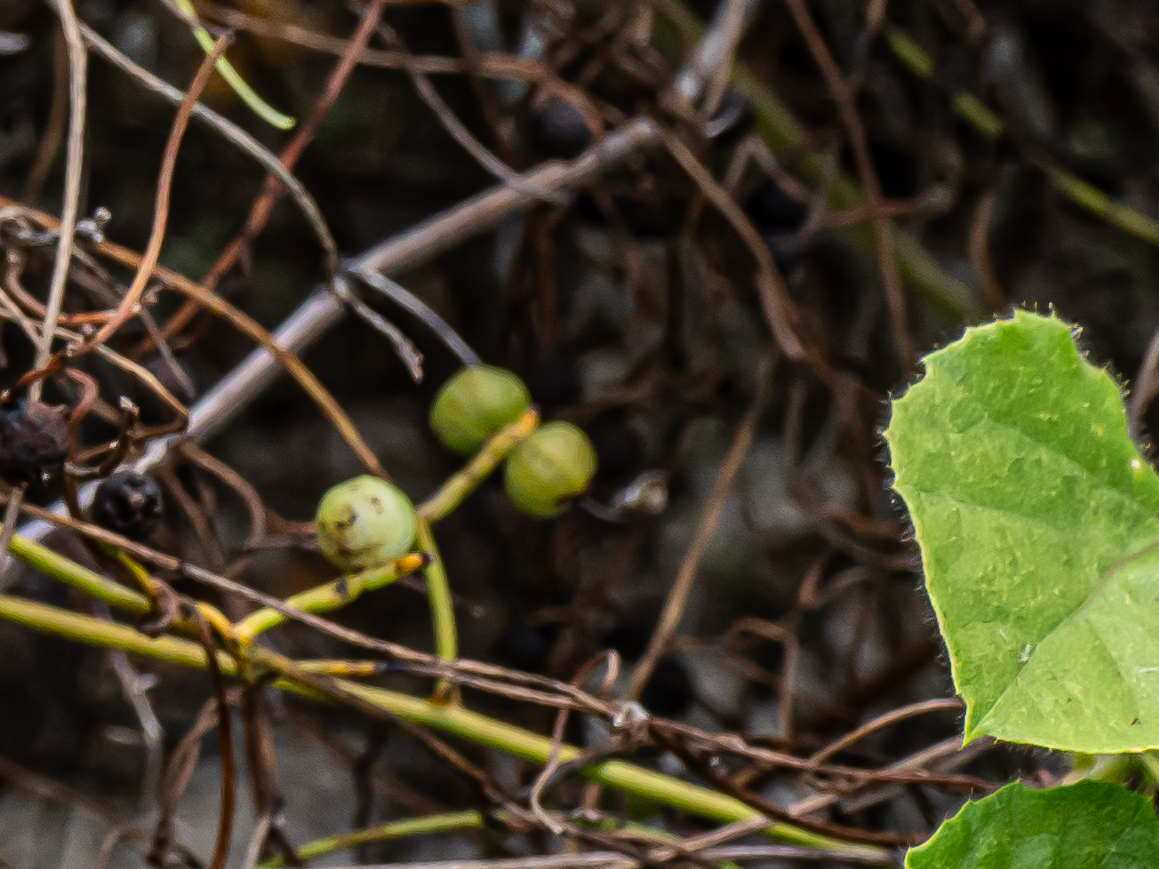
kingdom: Plantae
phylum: Tracheophyta
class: Magnoliopsida
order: Malpighiales
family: Passifloraceae
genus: Passiflora
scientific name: Passiflora vesicaria
